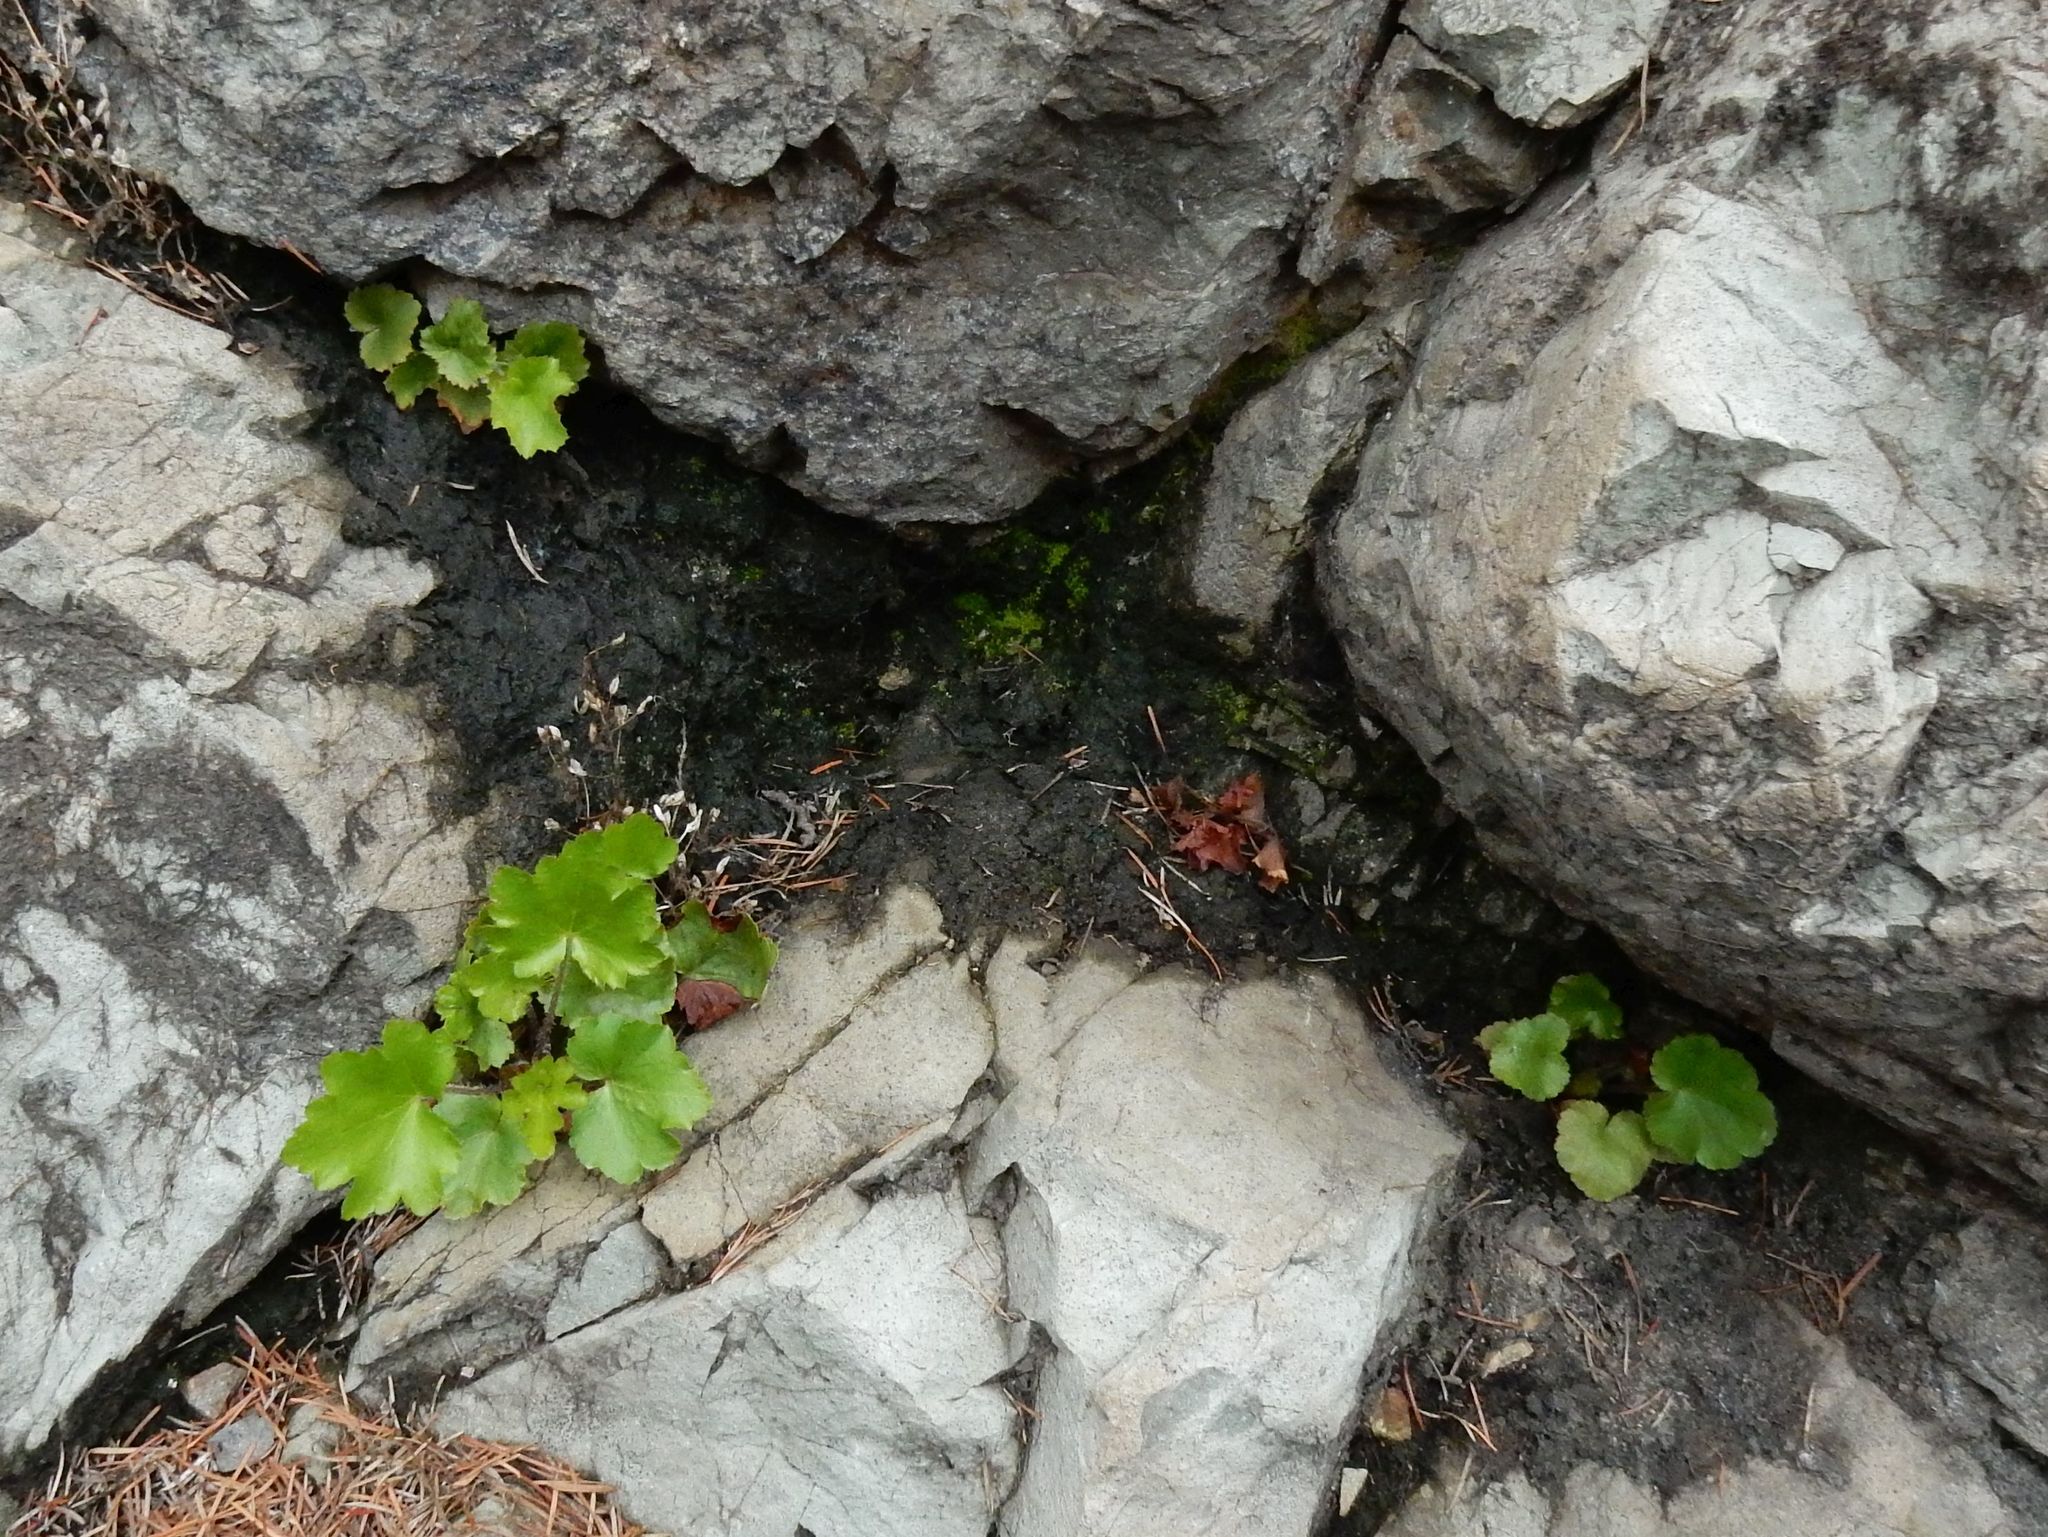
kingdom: Plantae
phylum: Tracheophyta
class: Magnoliopsida
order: Saxifragales
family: Saxifragaceae
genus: Heuchera
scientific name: Heuchera micrantha
